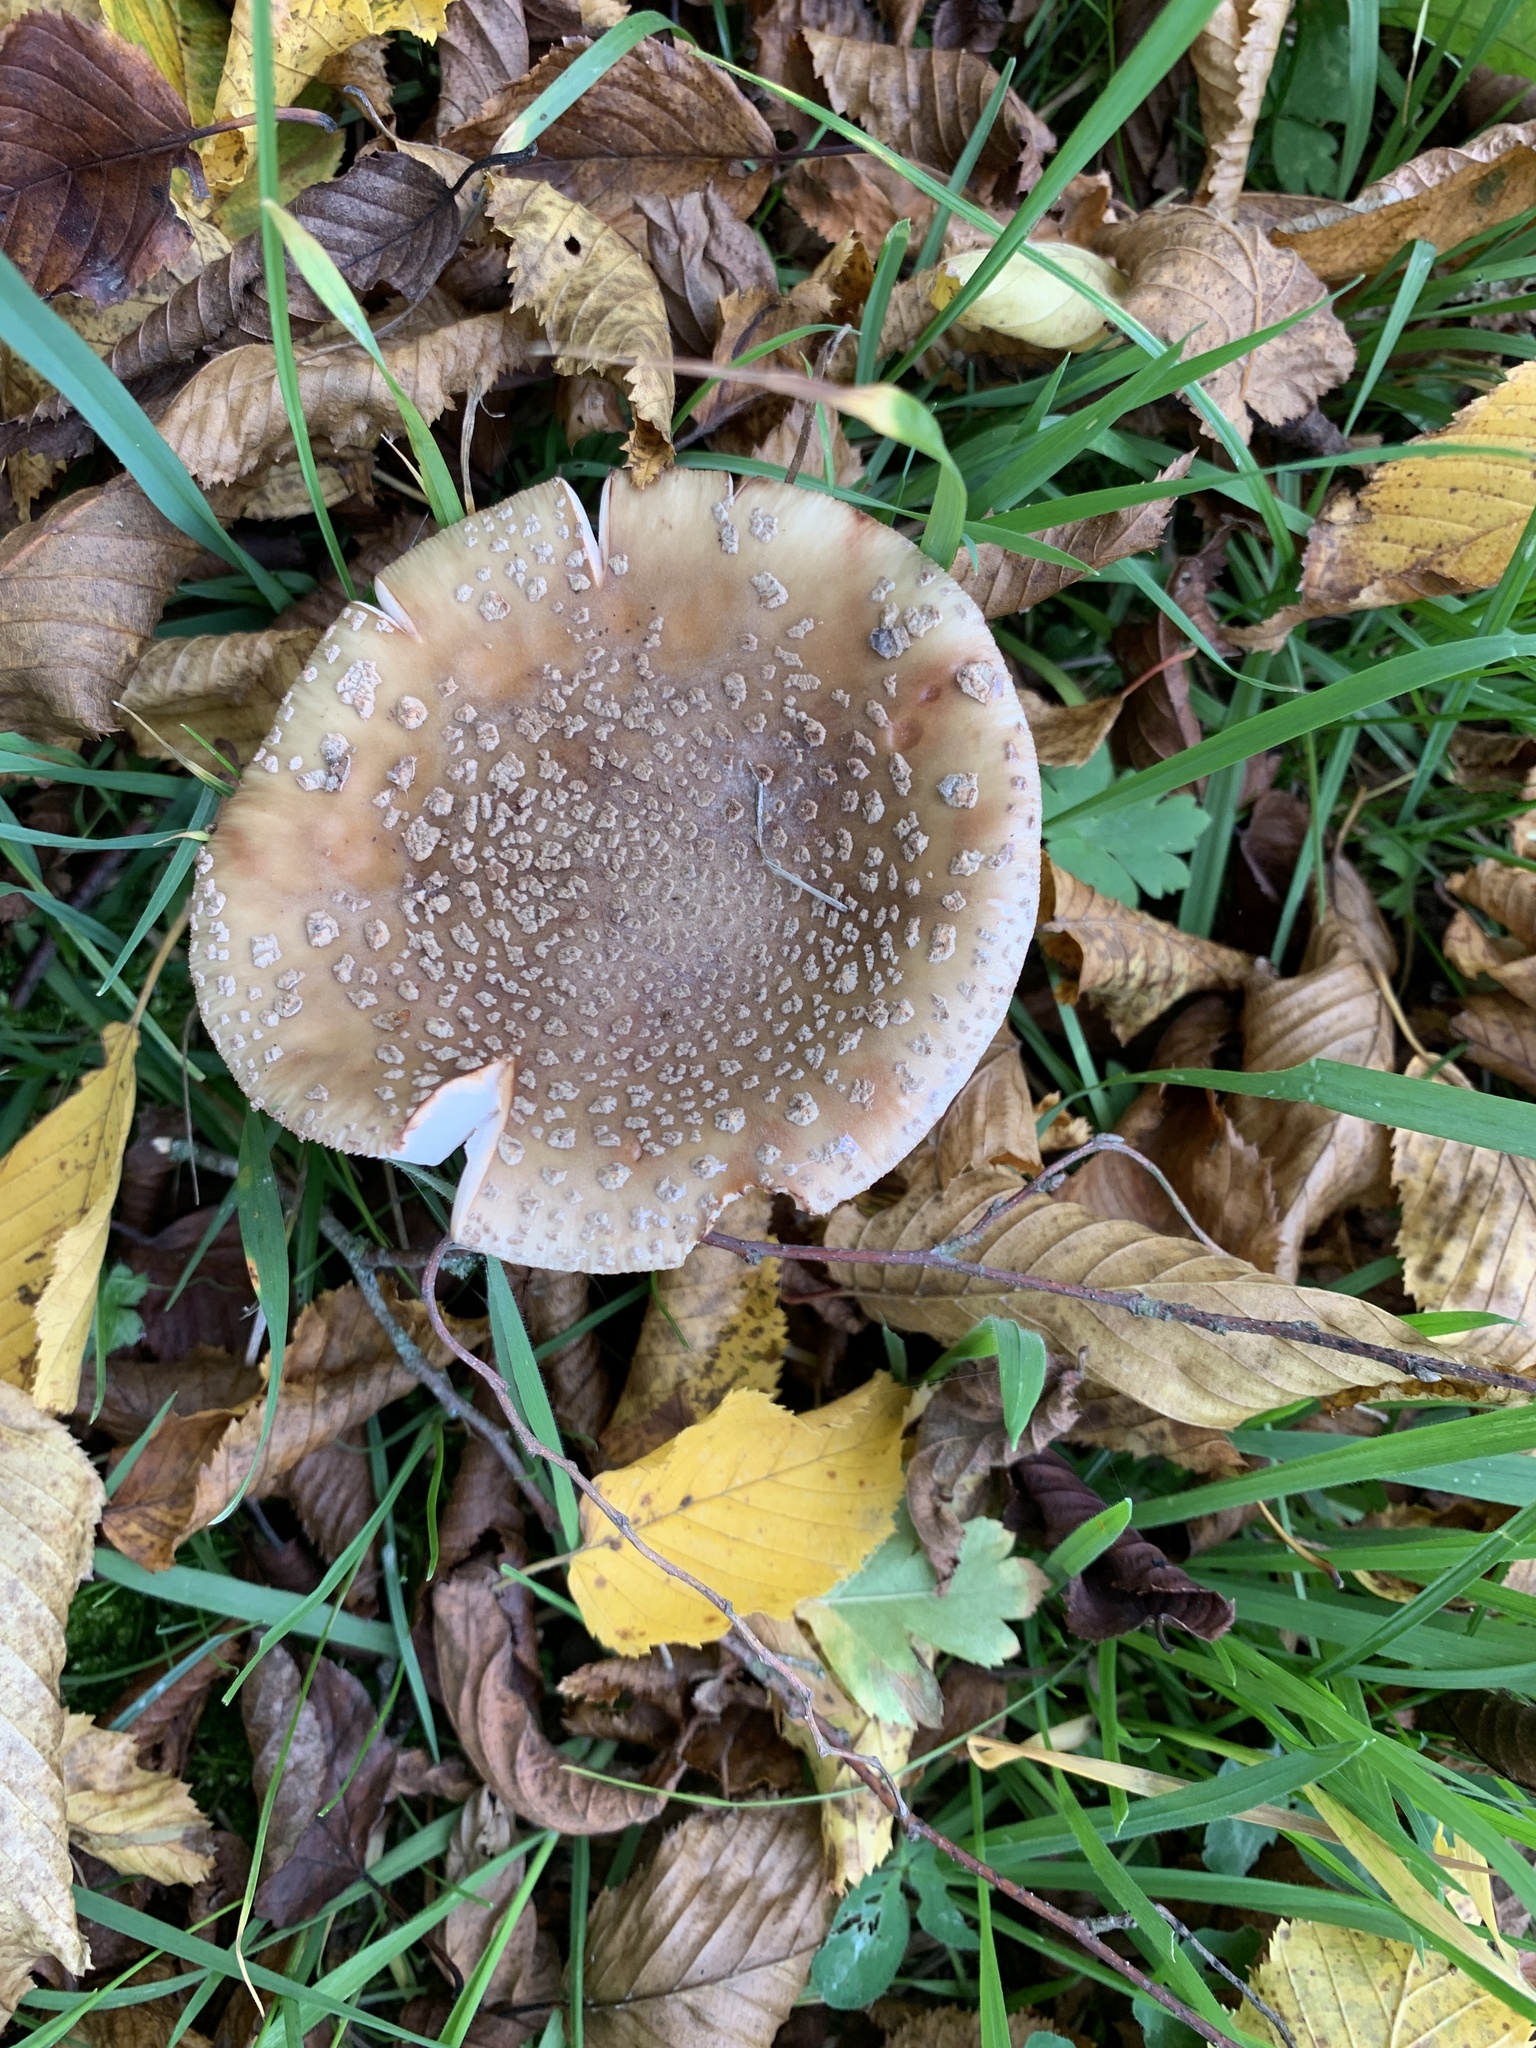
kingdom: Fungi
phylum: Basidiomycota
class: Agaricomycetes
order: Agaricales
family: Amanitaceae
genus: Amanita
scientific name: Amanita rubescens
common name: Blusher
